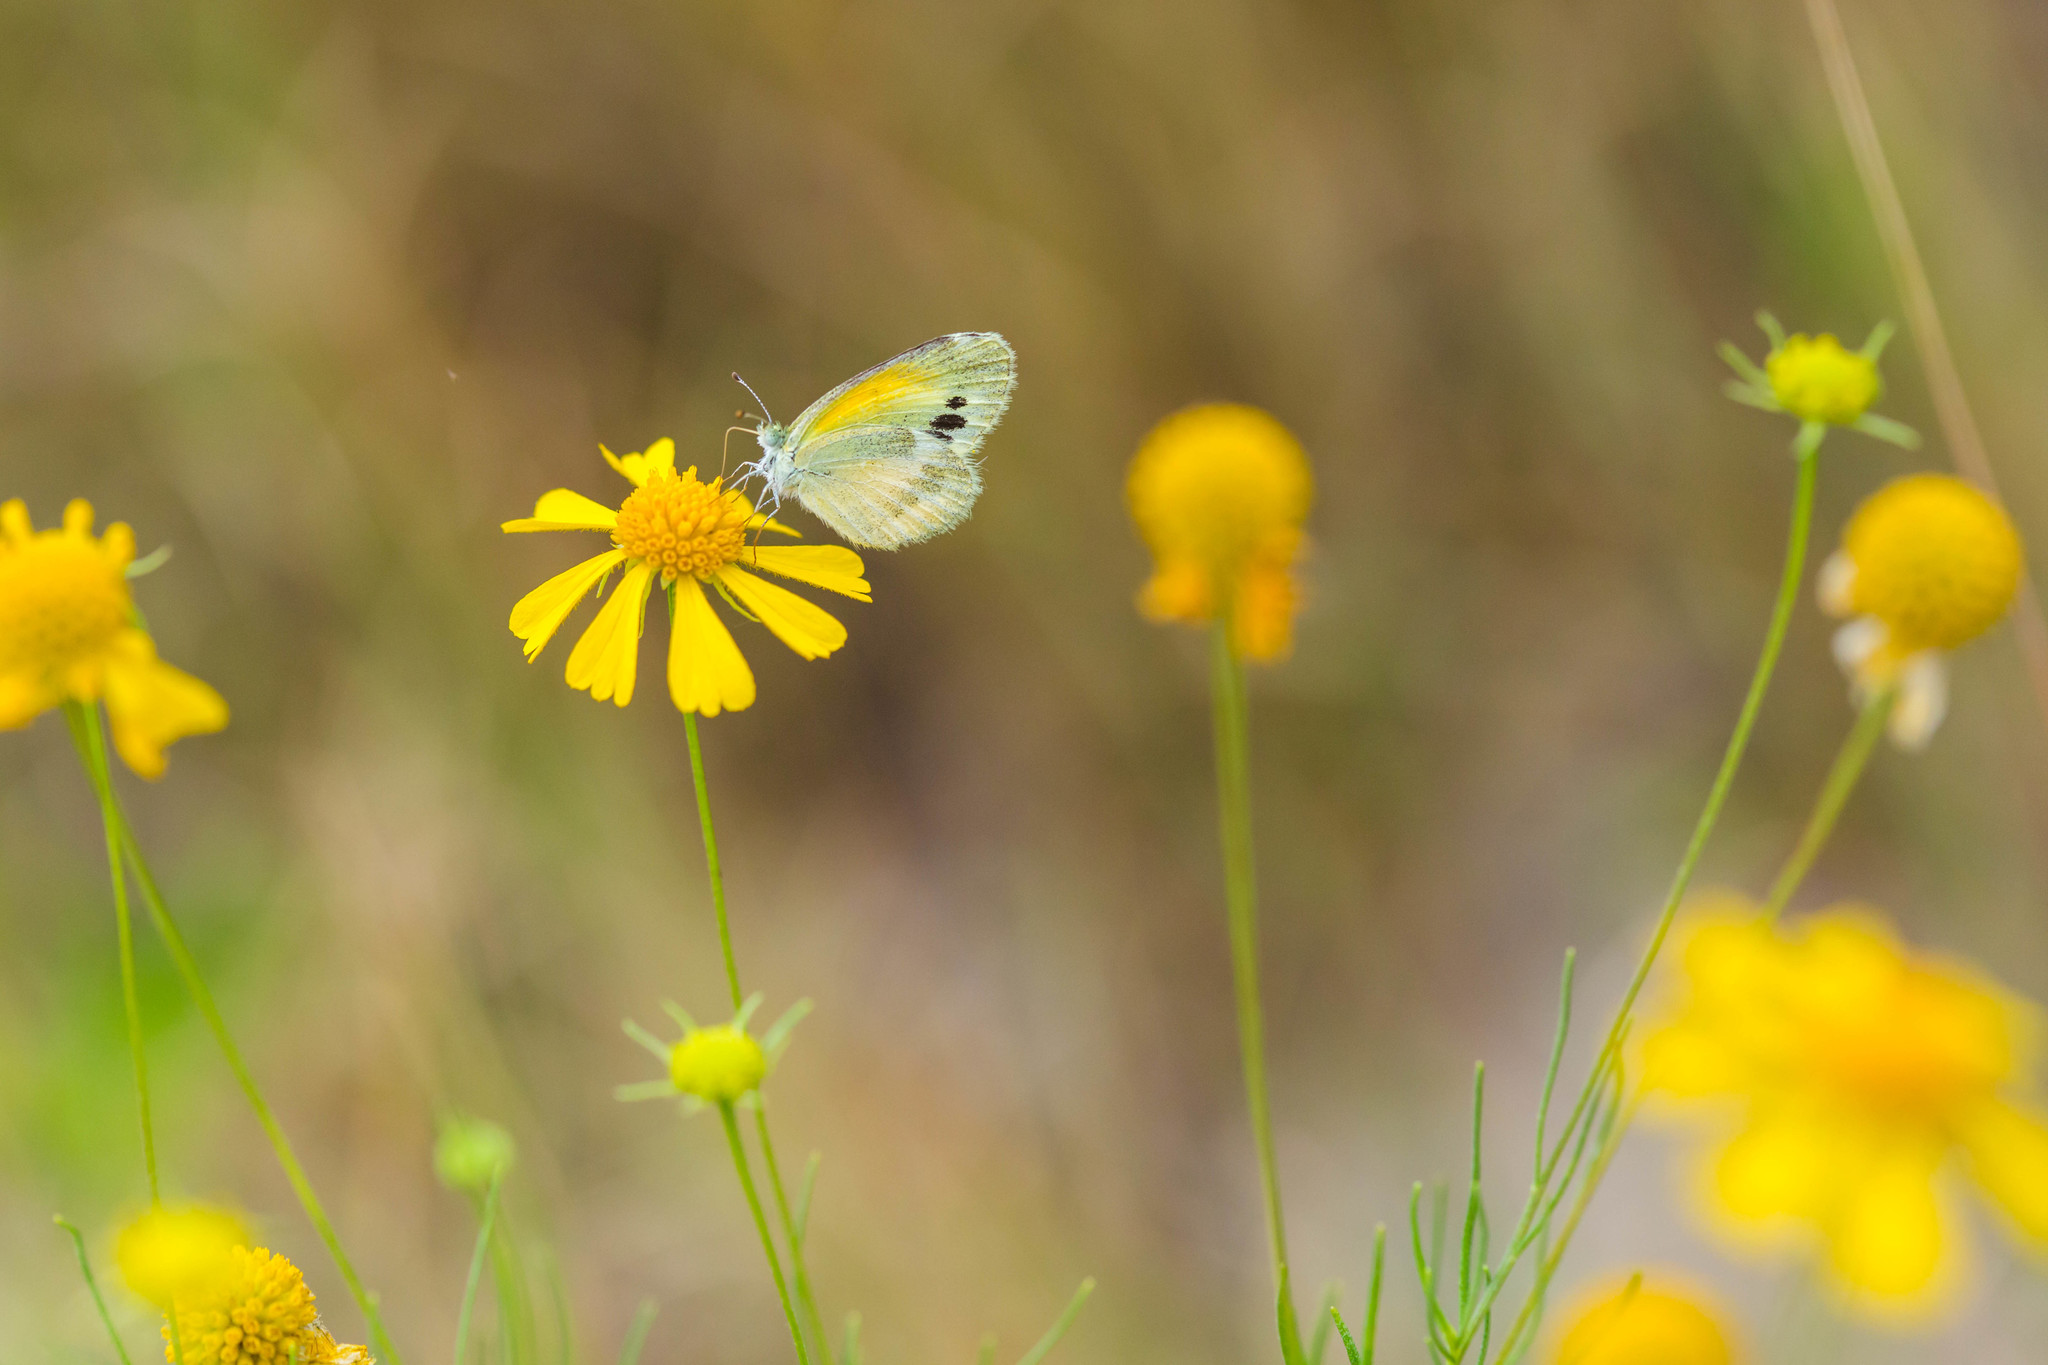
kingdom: Animalia
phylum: Arthropoda
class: Insecta
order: Lepidoptera
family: Pieridae
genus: Nathalis
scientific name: Nathalis iole
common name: Dainty sulphur
